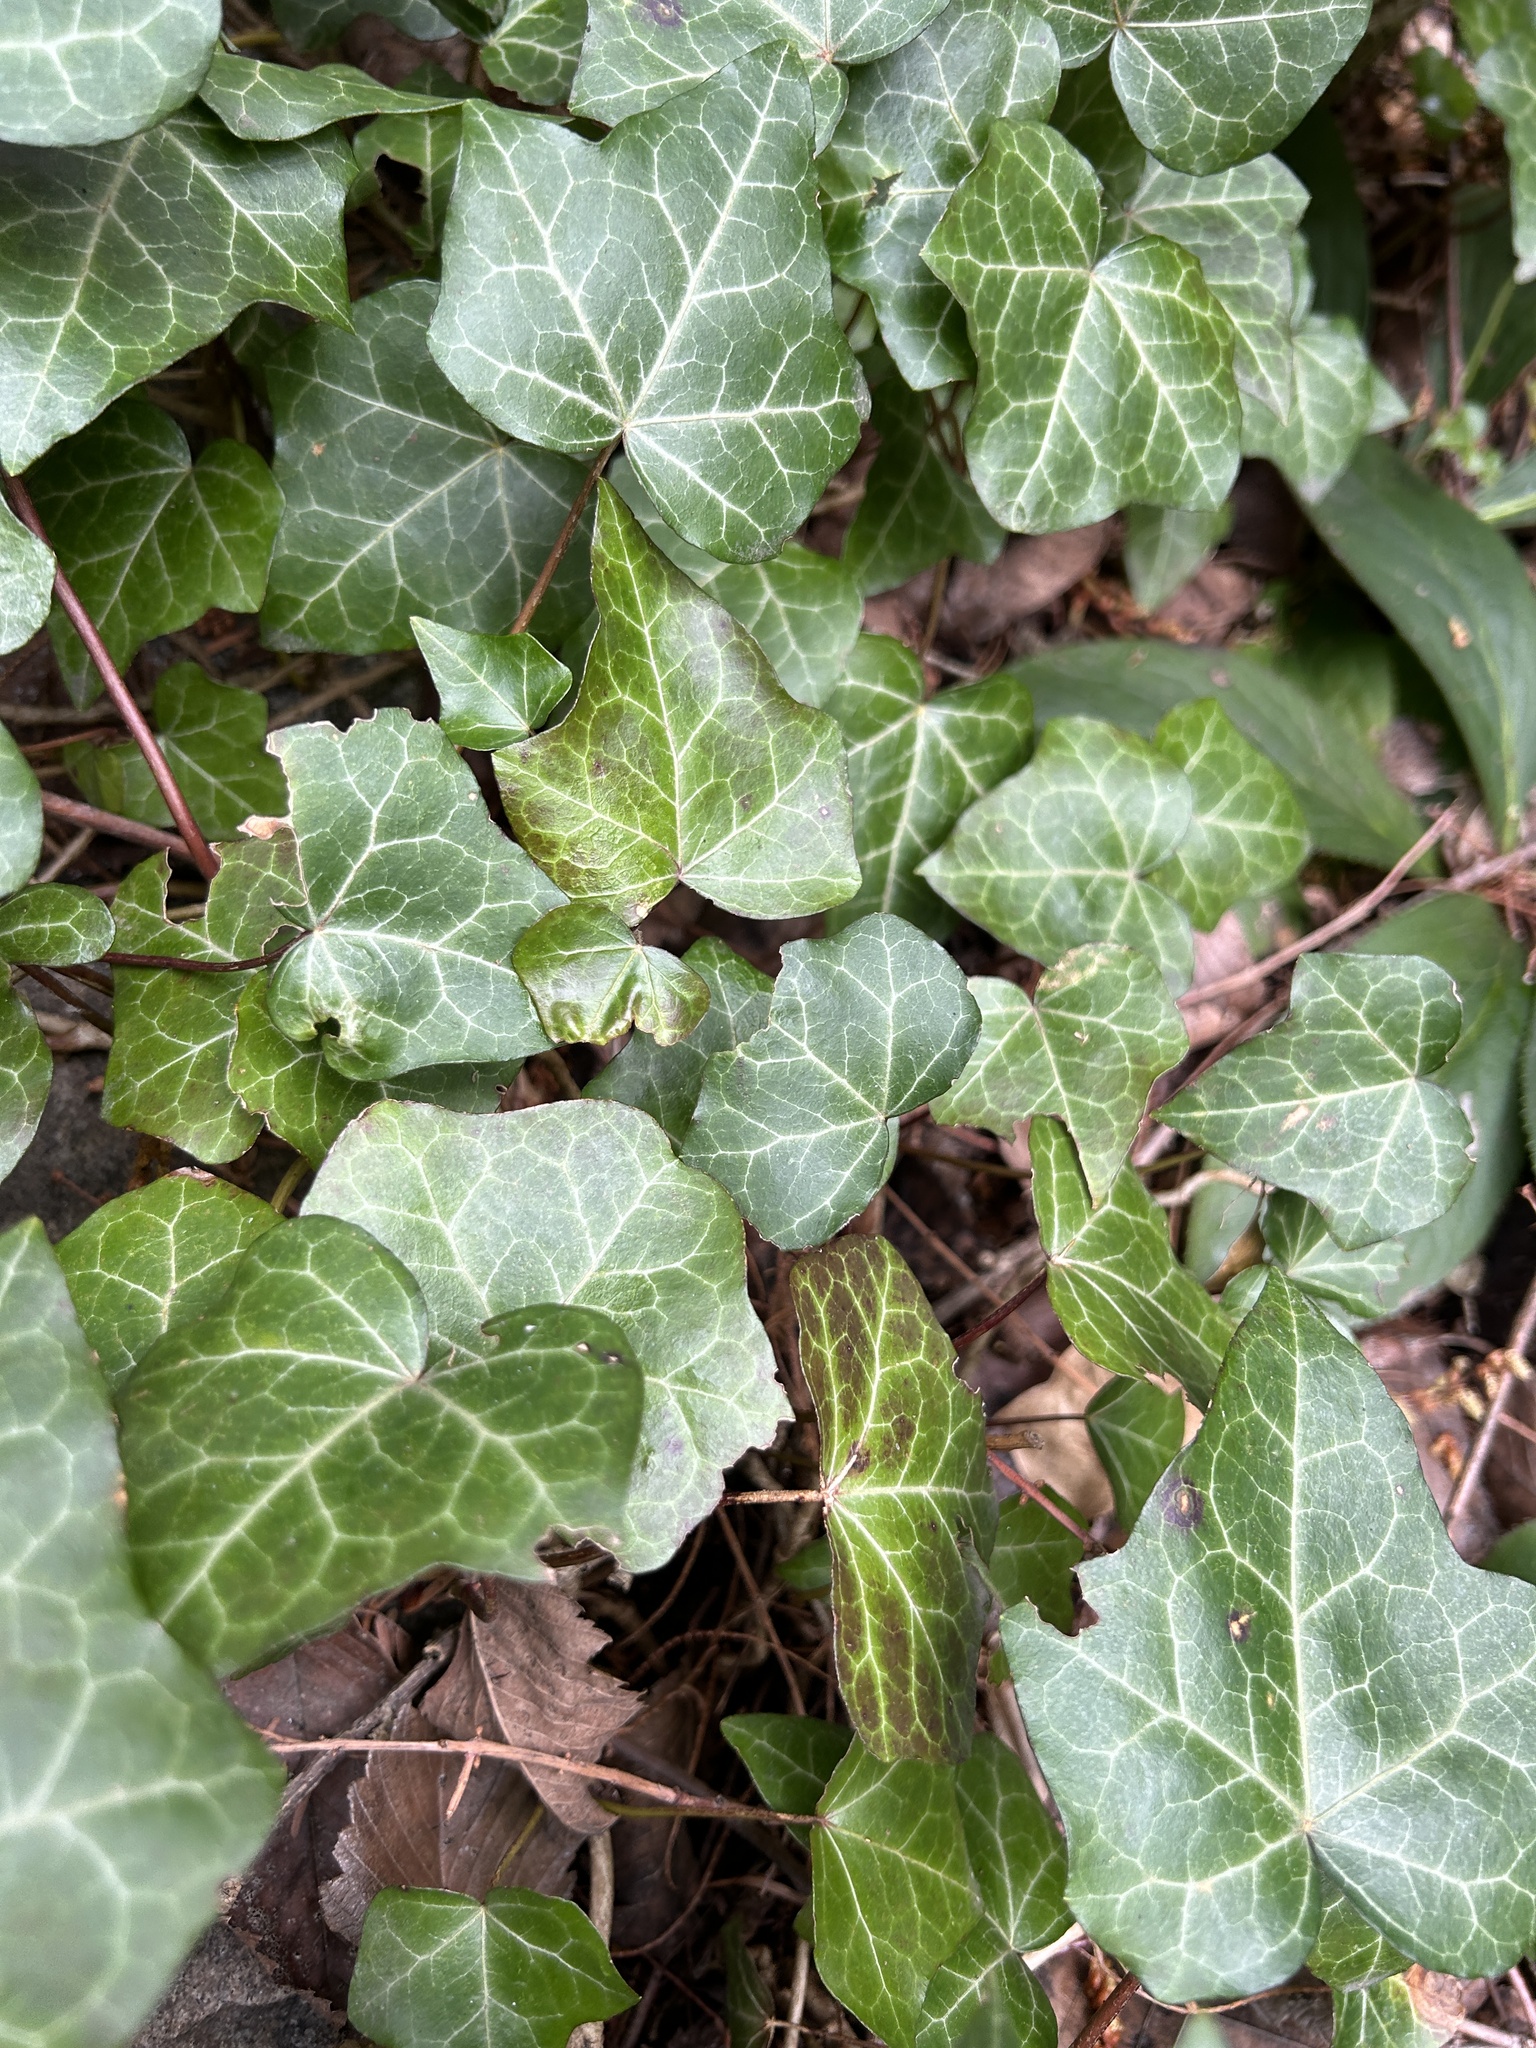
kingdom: Plantae
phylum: Tracheophyta
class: Magnoliopsida
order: Apiales
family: Araliaceae
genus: Hedera
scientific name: Hedera helix
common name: Ivy
